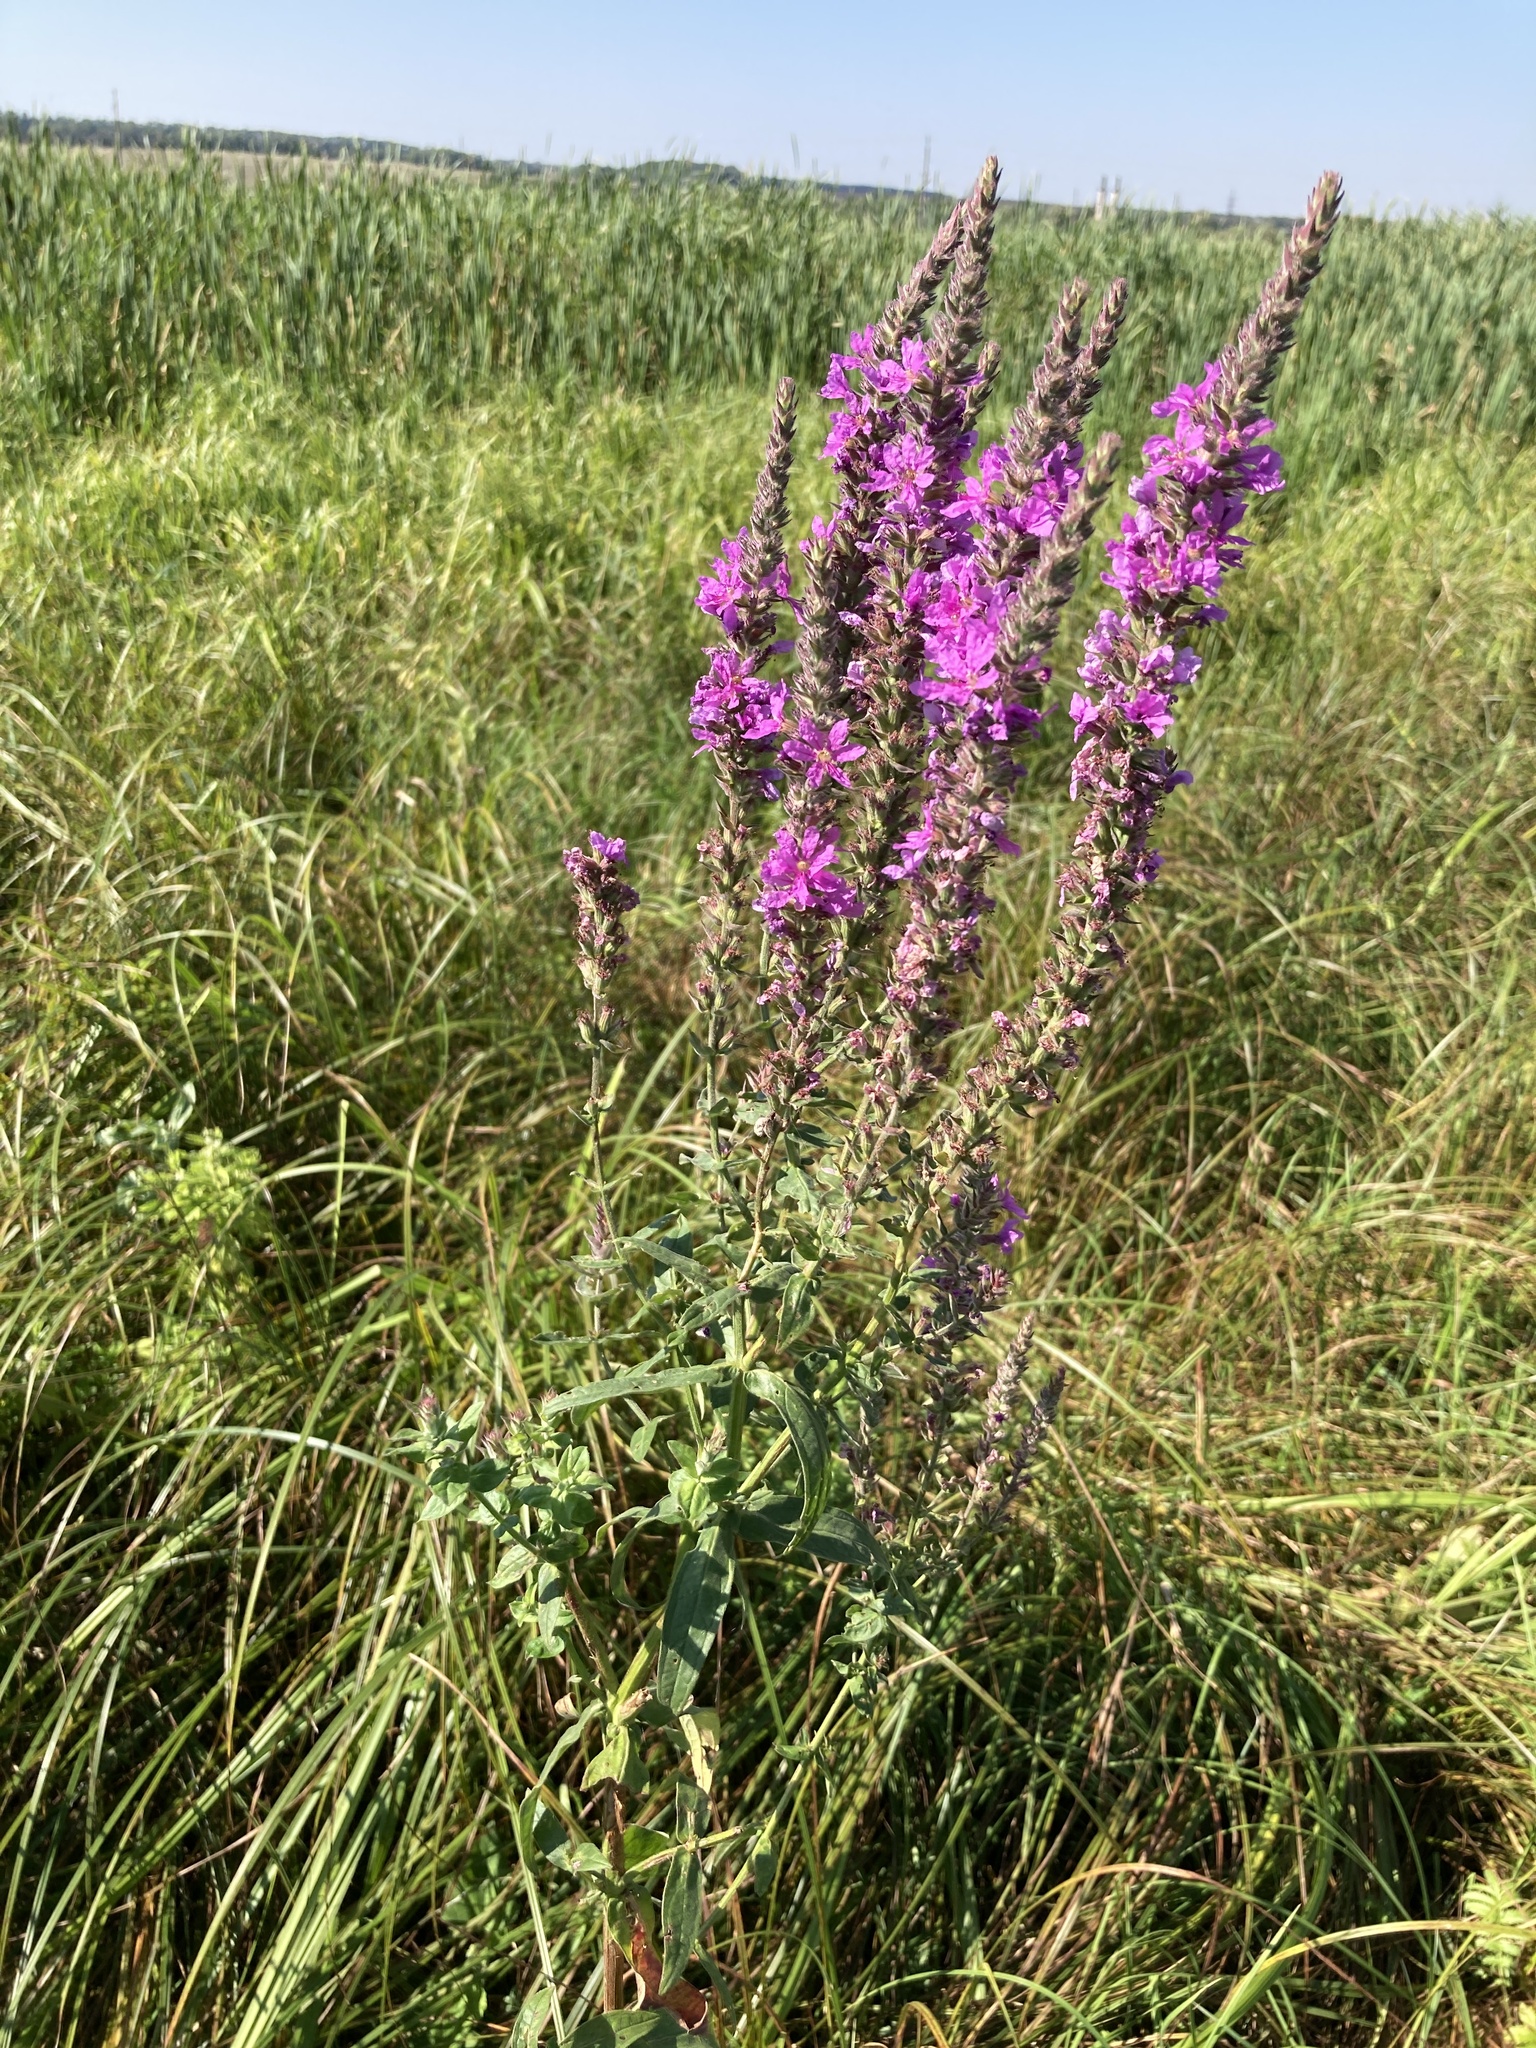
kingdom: Plantae
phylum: Tracheophyta
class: Magnoliopsida
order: Myrtales
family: Lythraceae
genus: Lythrum
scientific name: Lythrum salicaria
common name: Purple loosestrife
